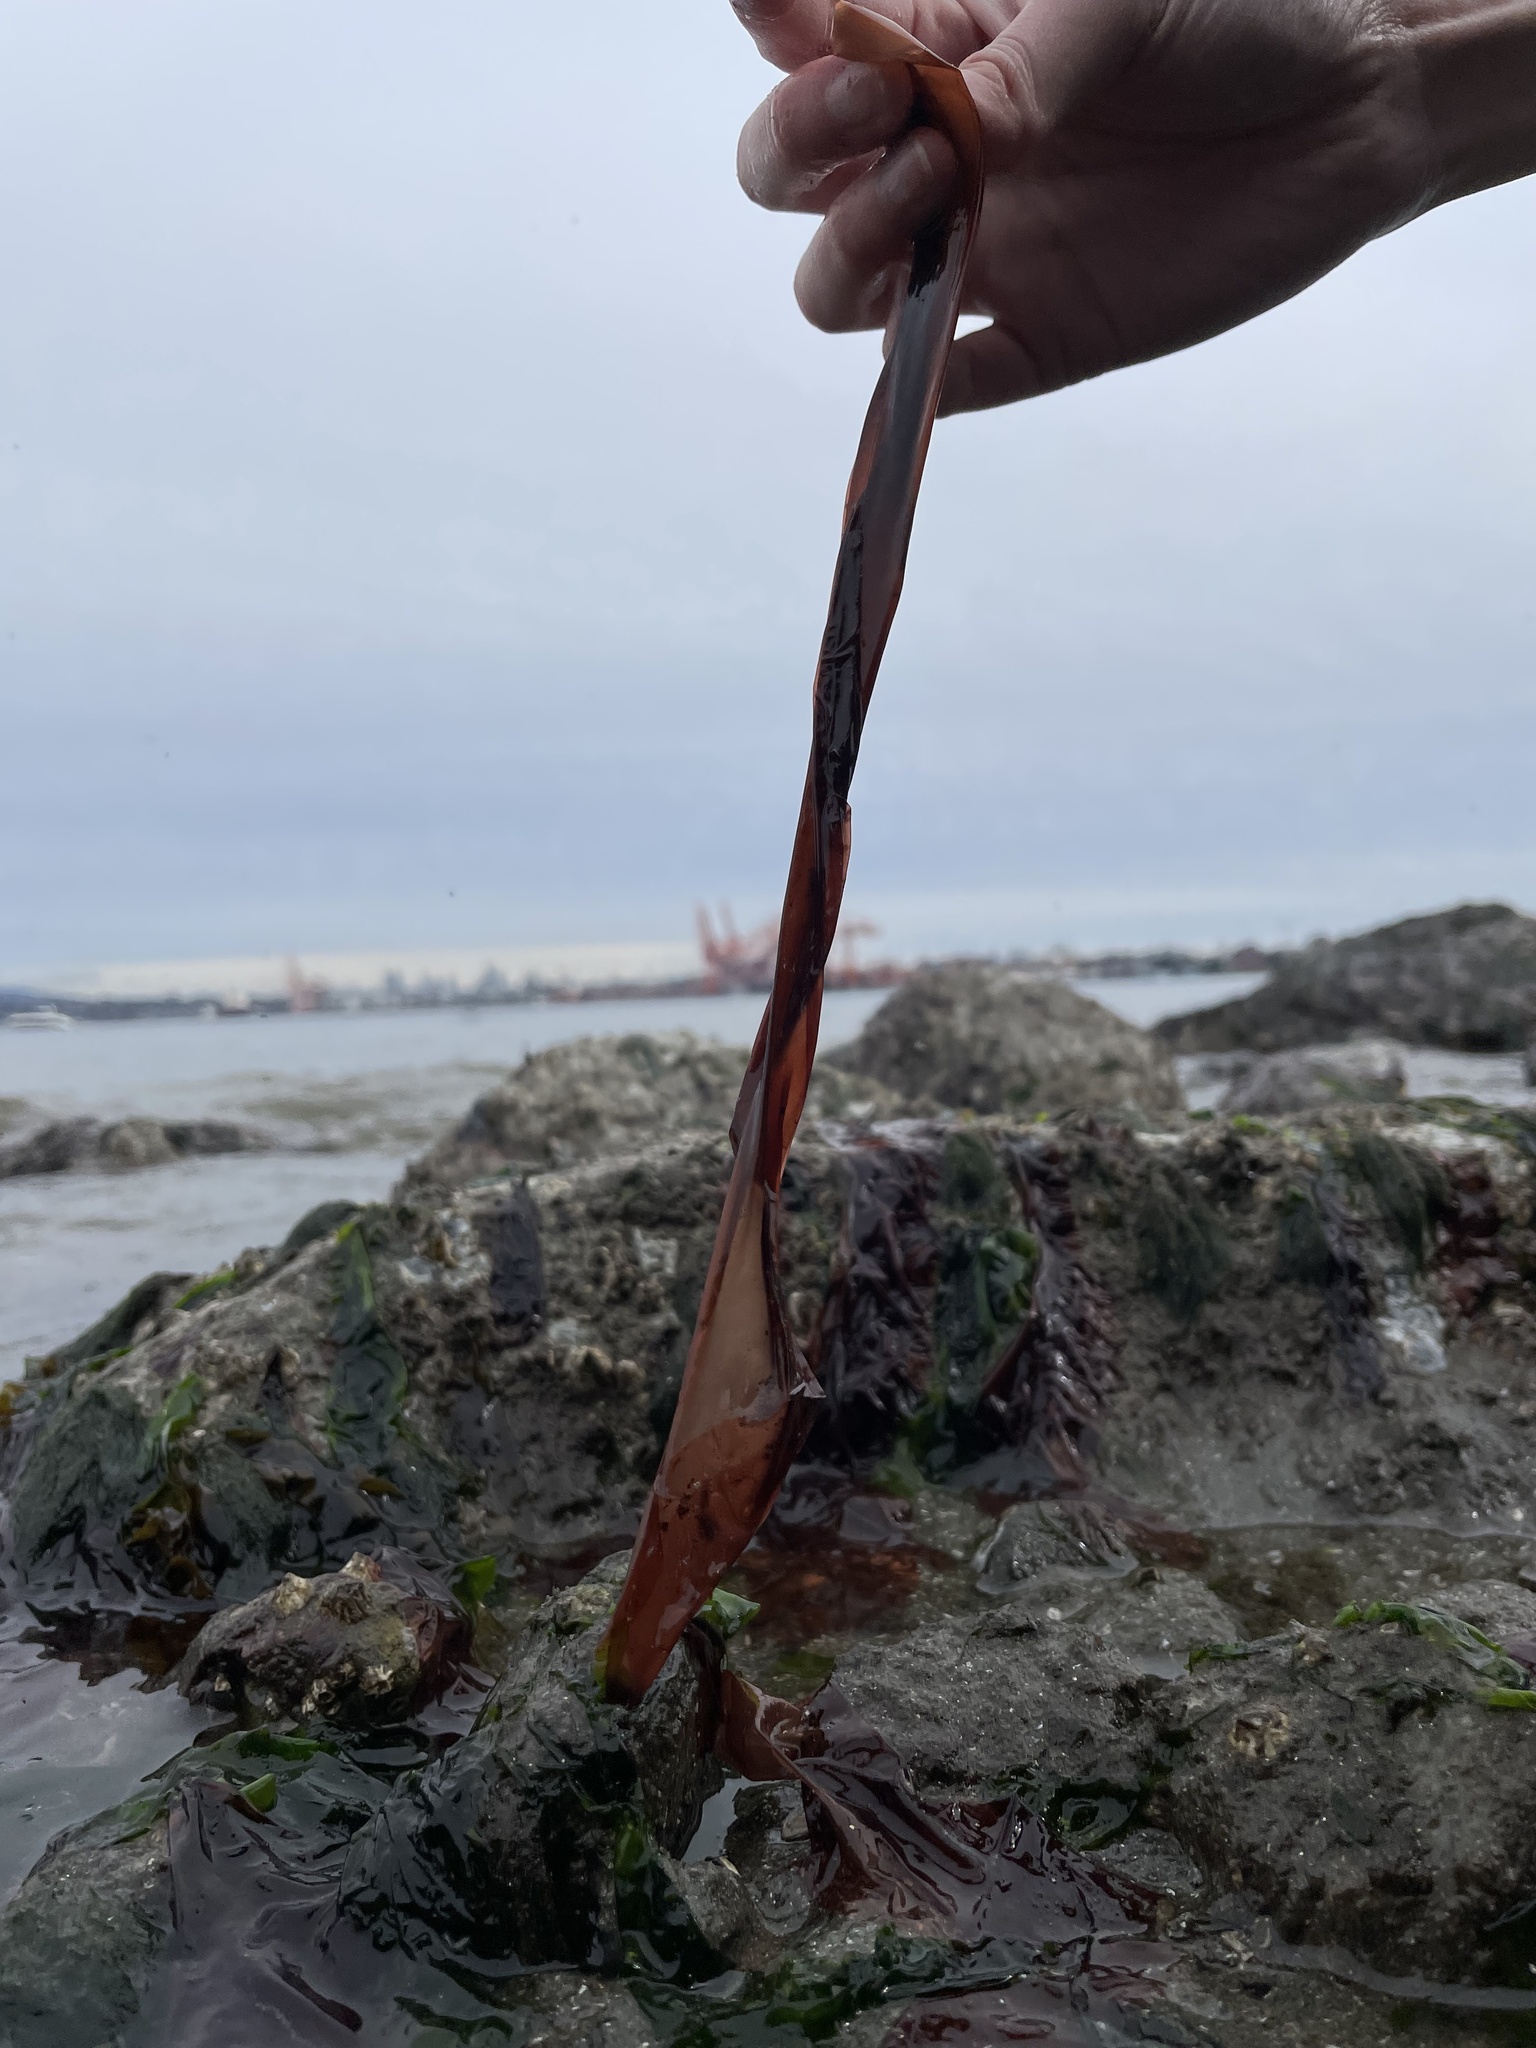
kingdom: Plantae
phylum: Rhodophyta
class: Bangiophyceae
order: Bangiales
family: Bangiaceae
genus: Wildemania
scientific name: Wildemania amplissima
